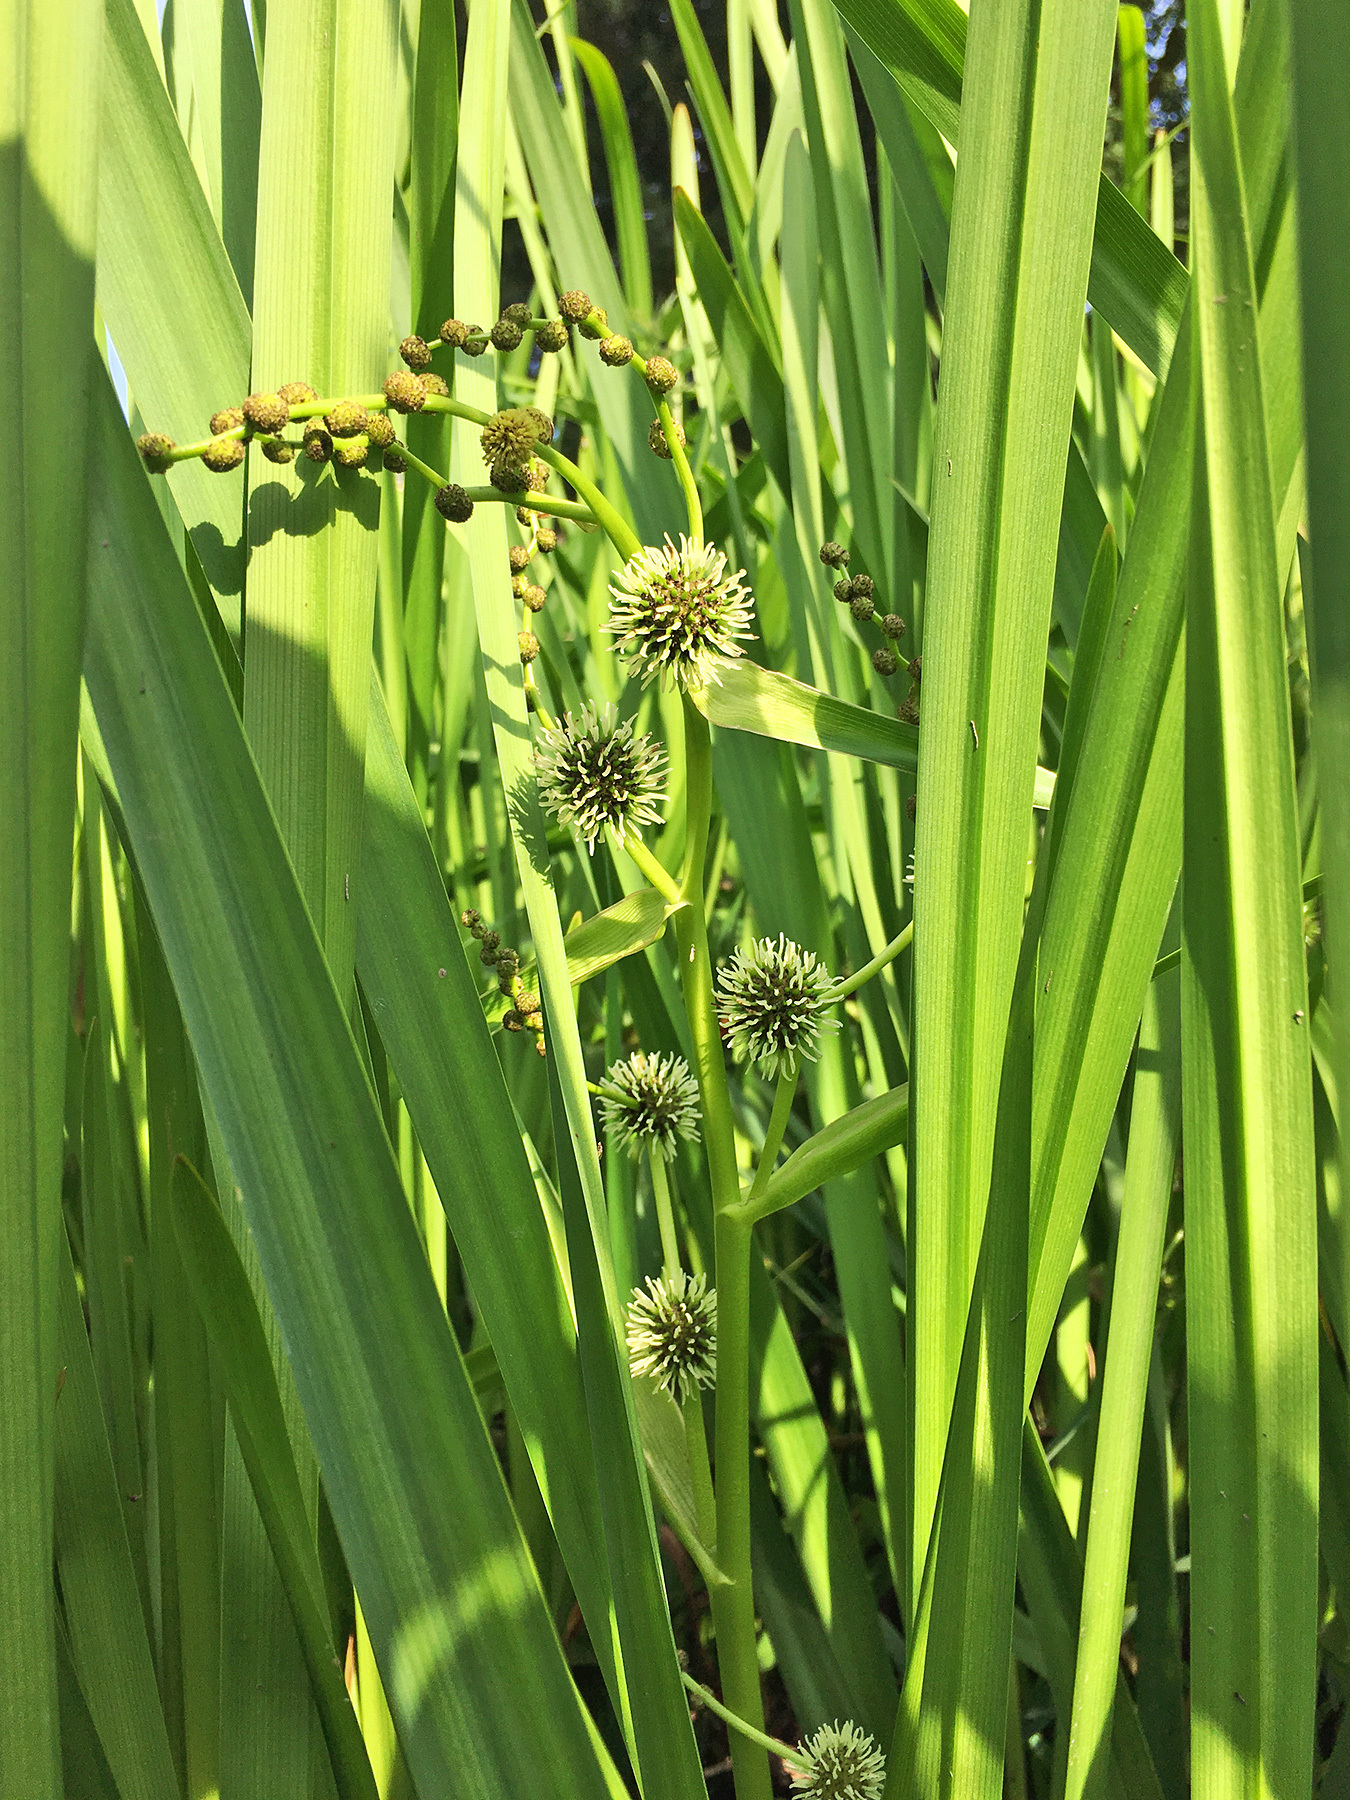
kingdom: Plantae
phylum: Tracheophyta
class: Liliopsida
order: Poales
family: Typhaceae
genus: Sparganium
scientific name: Sparganium erectum
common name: Branched bur-reed
